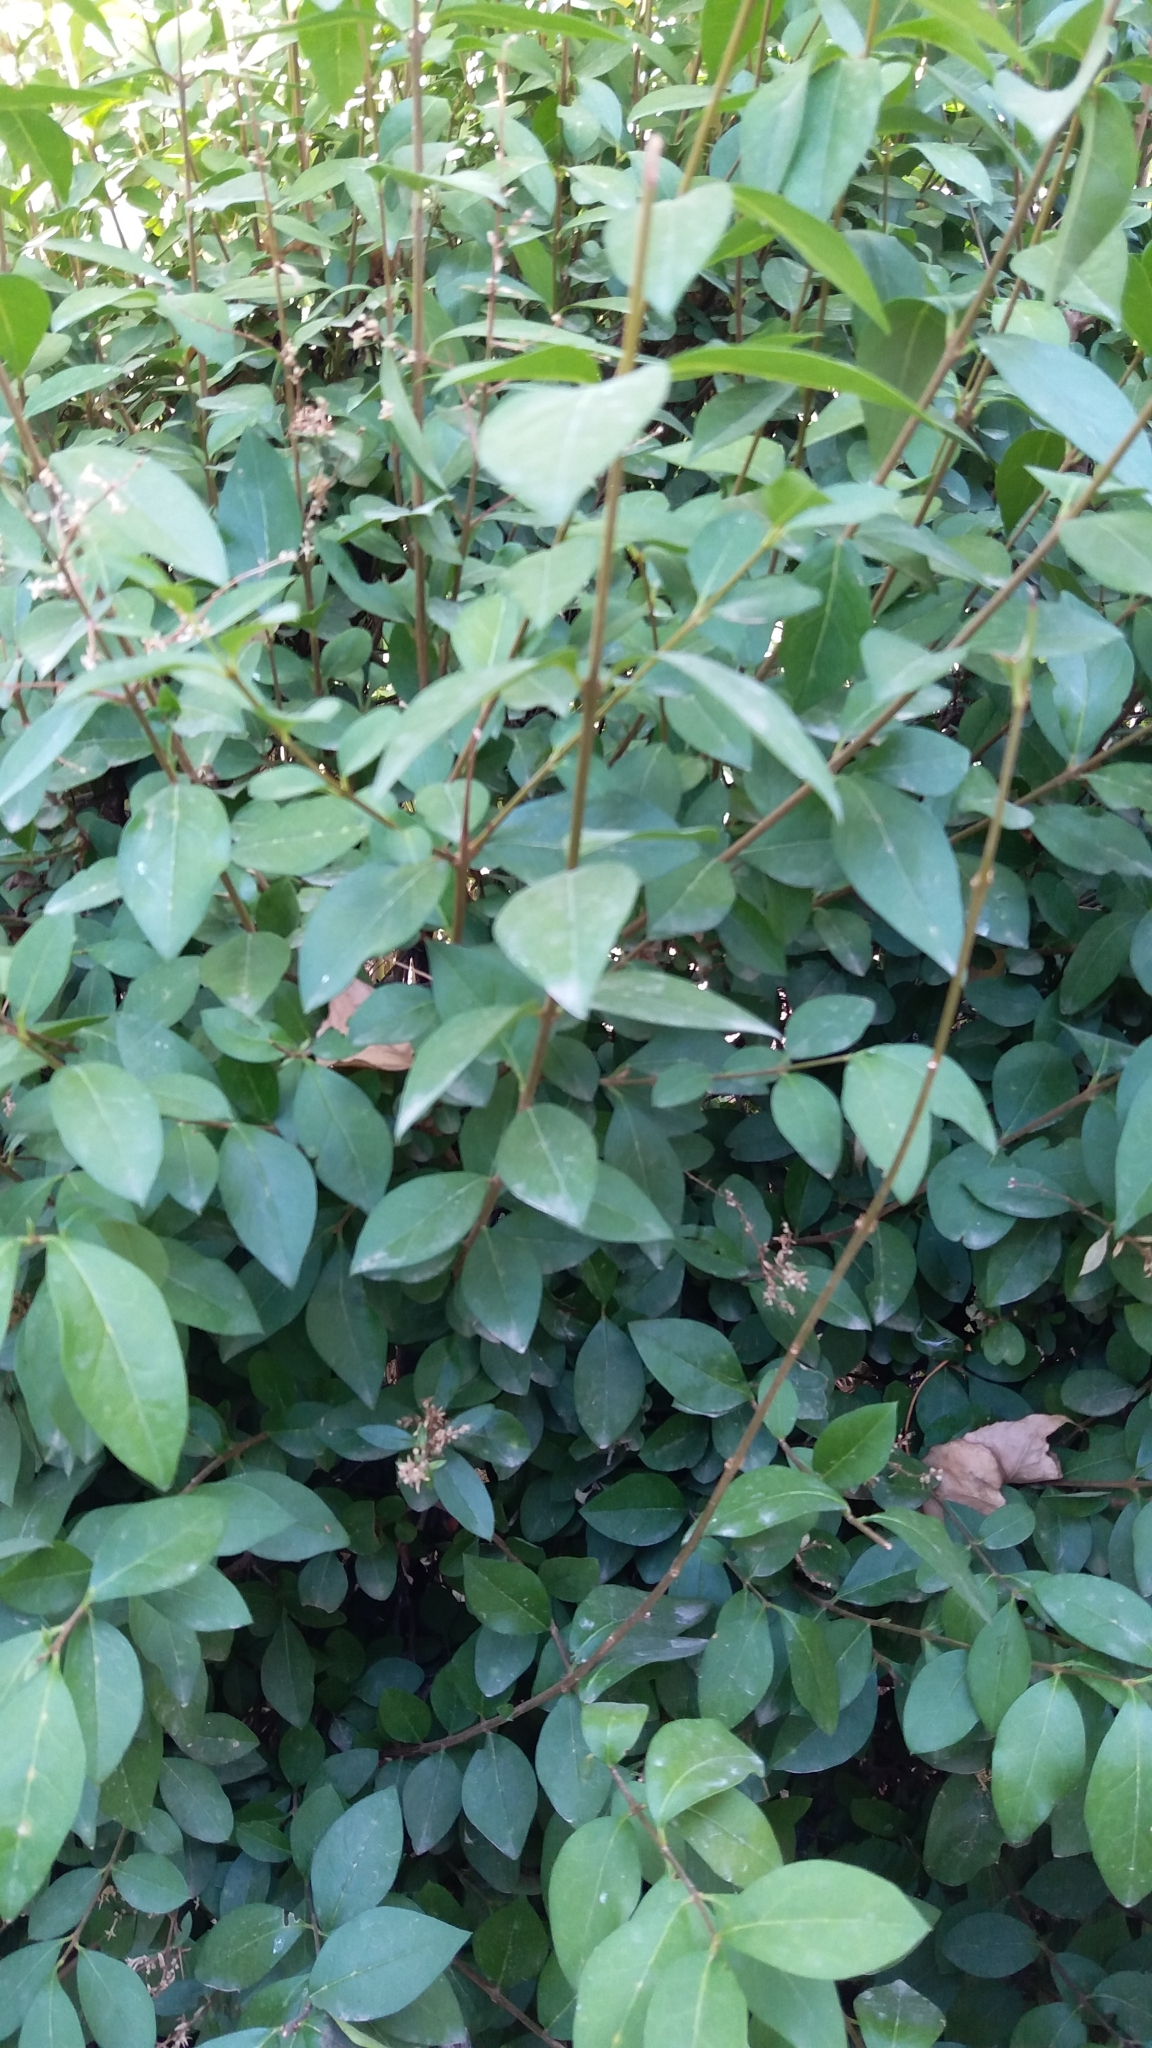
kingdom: Plantae
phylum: Tracheophyta
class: Magnoliopsida
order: Lamiales
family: Oleaceae
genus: Ligustrum
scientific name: Ligustrum lucidum
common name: Glossy privet
